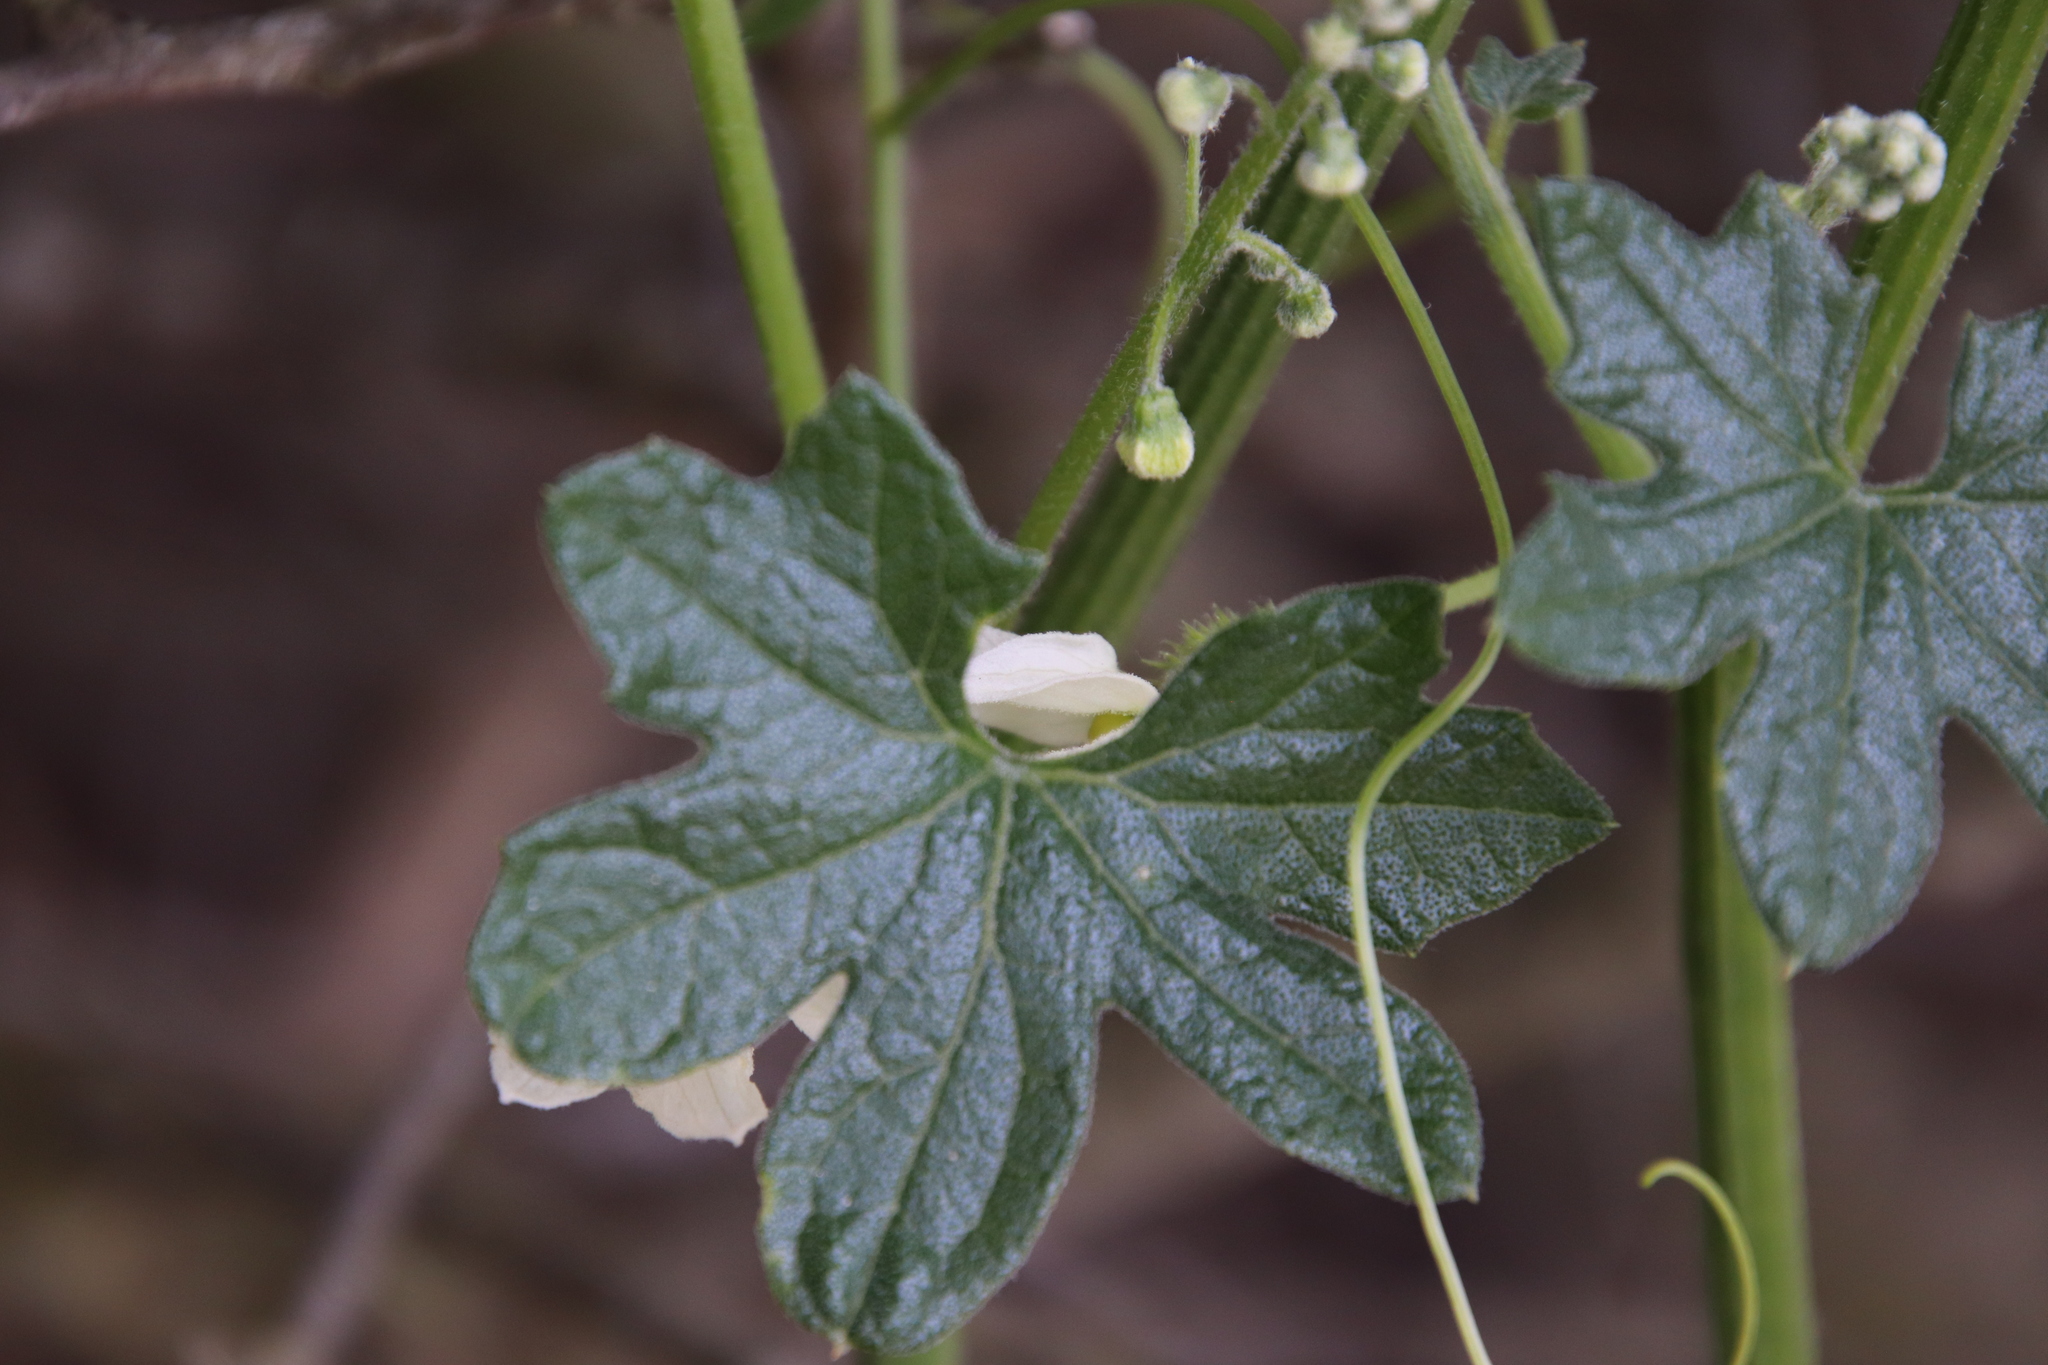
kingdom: Plantae
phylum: Tracheophyta
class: Magnoliopsida
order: Cucurbitales
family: Cucurbitaceae
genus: Marah
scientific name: Marah macrocarpa
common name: Cucamonga manroot
